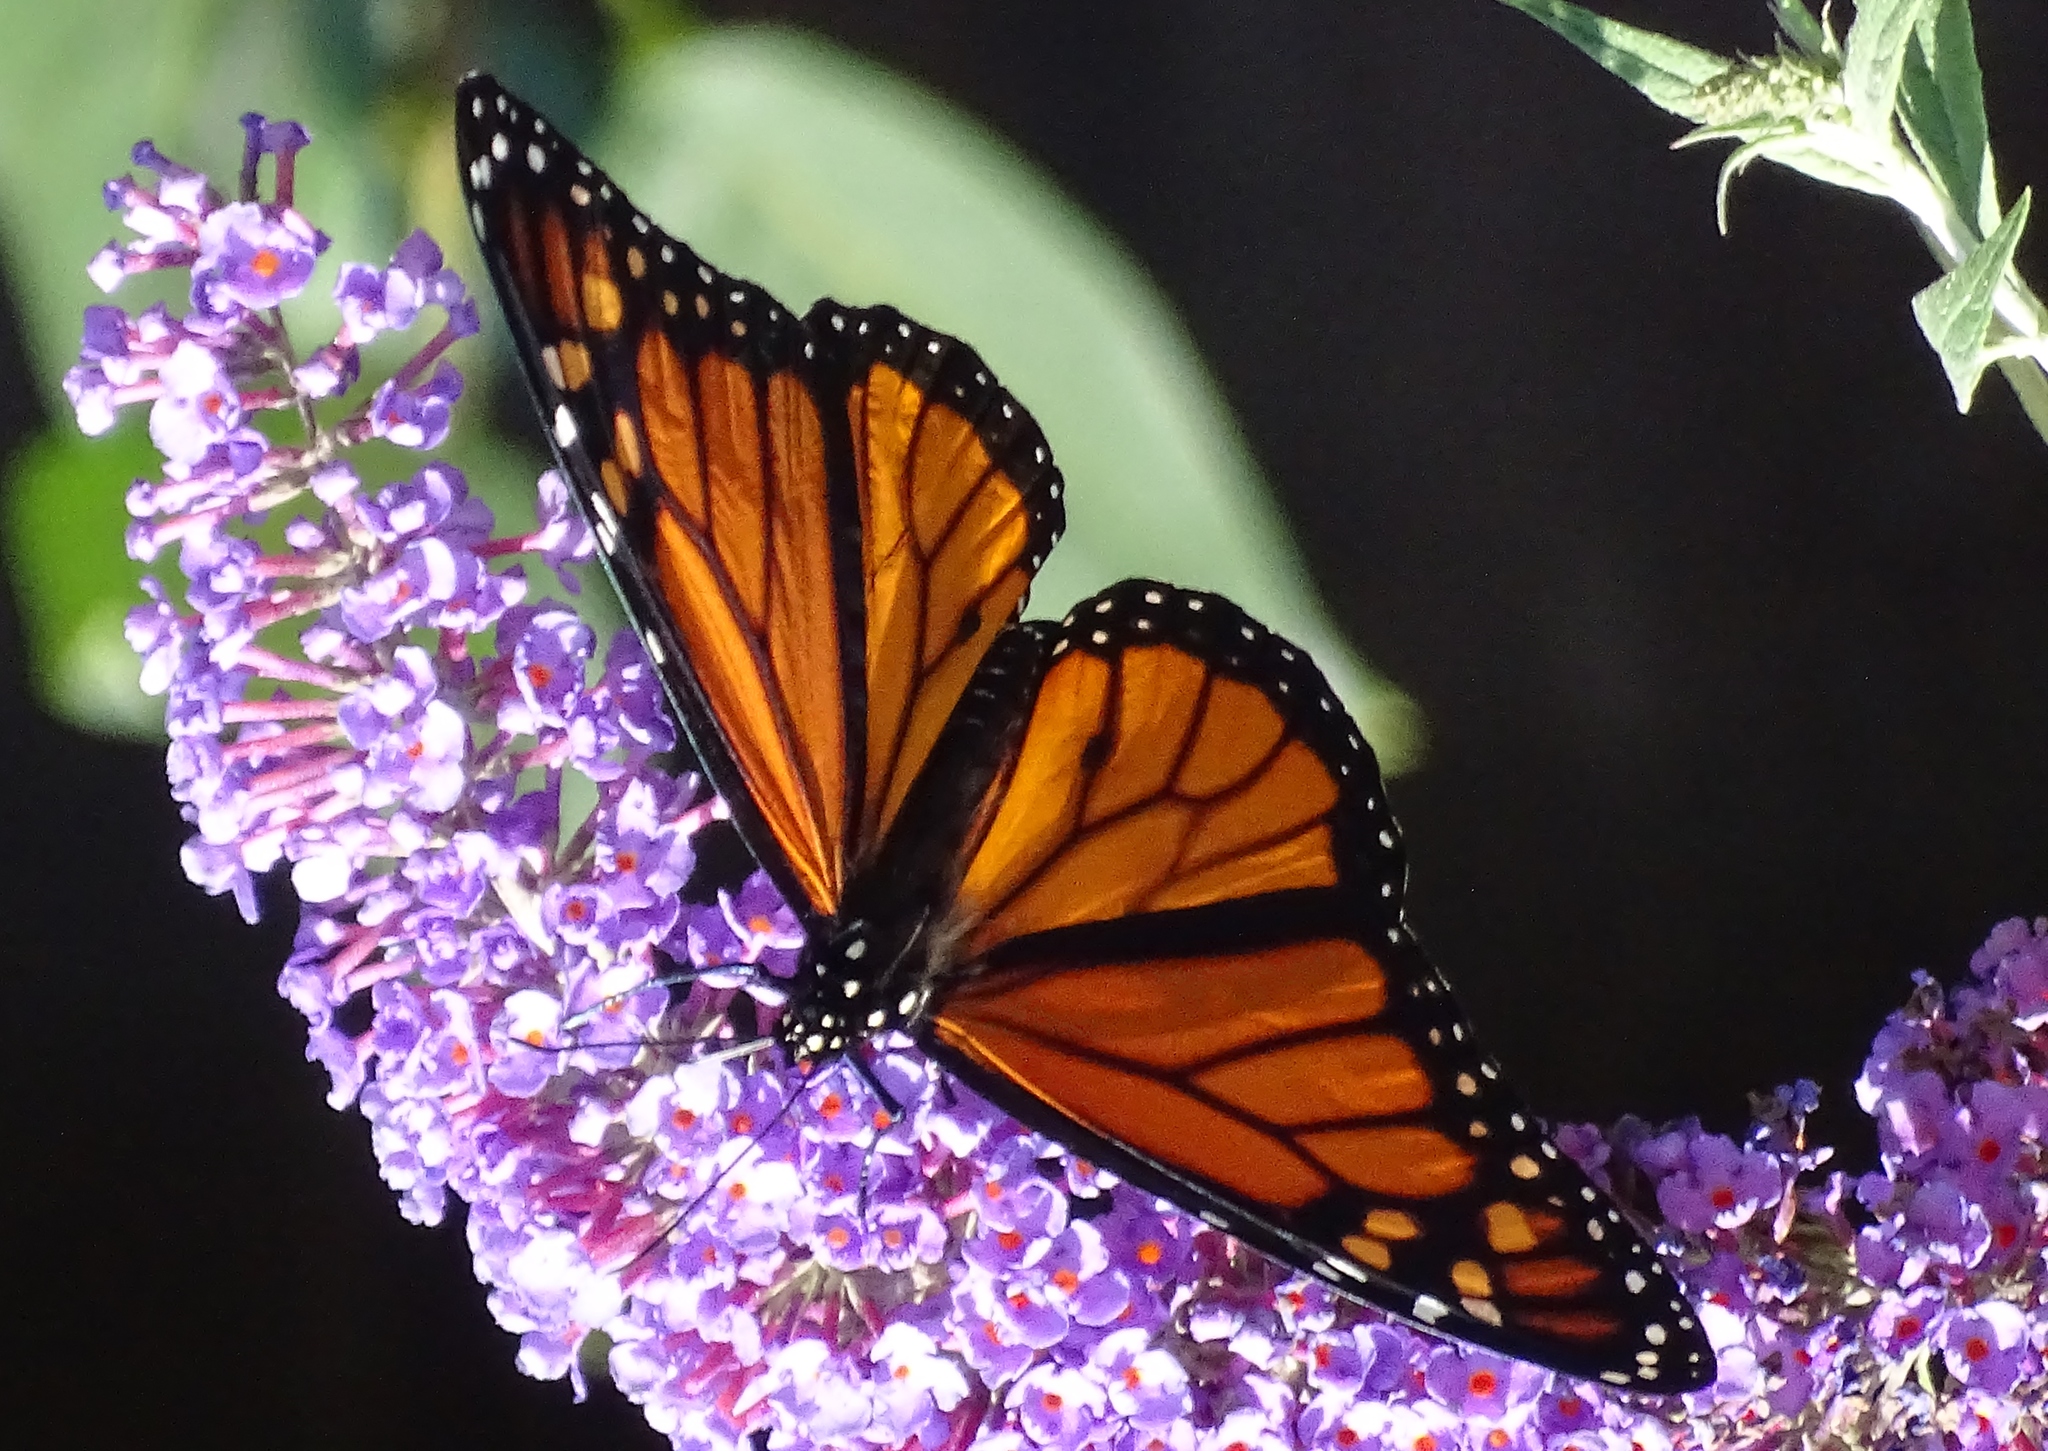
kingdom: Animalia
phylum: Arthropoda
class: Insecta
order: Lepidoptera
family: Nymphalidae
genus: Danaus
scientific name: Danaus plexippus
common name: Monarch
